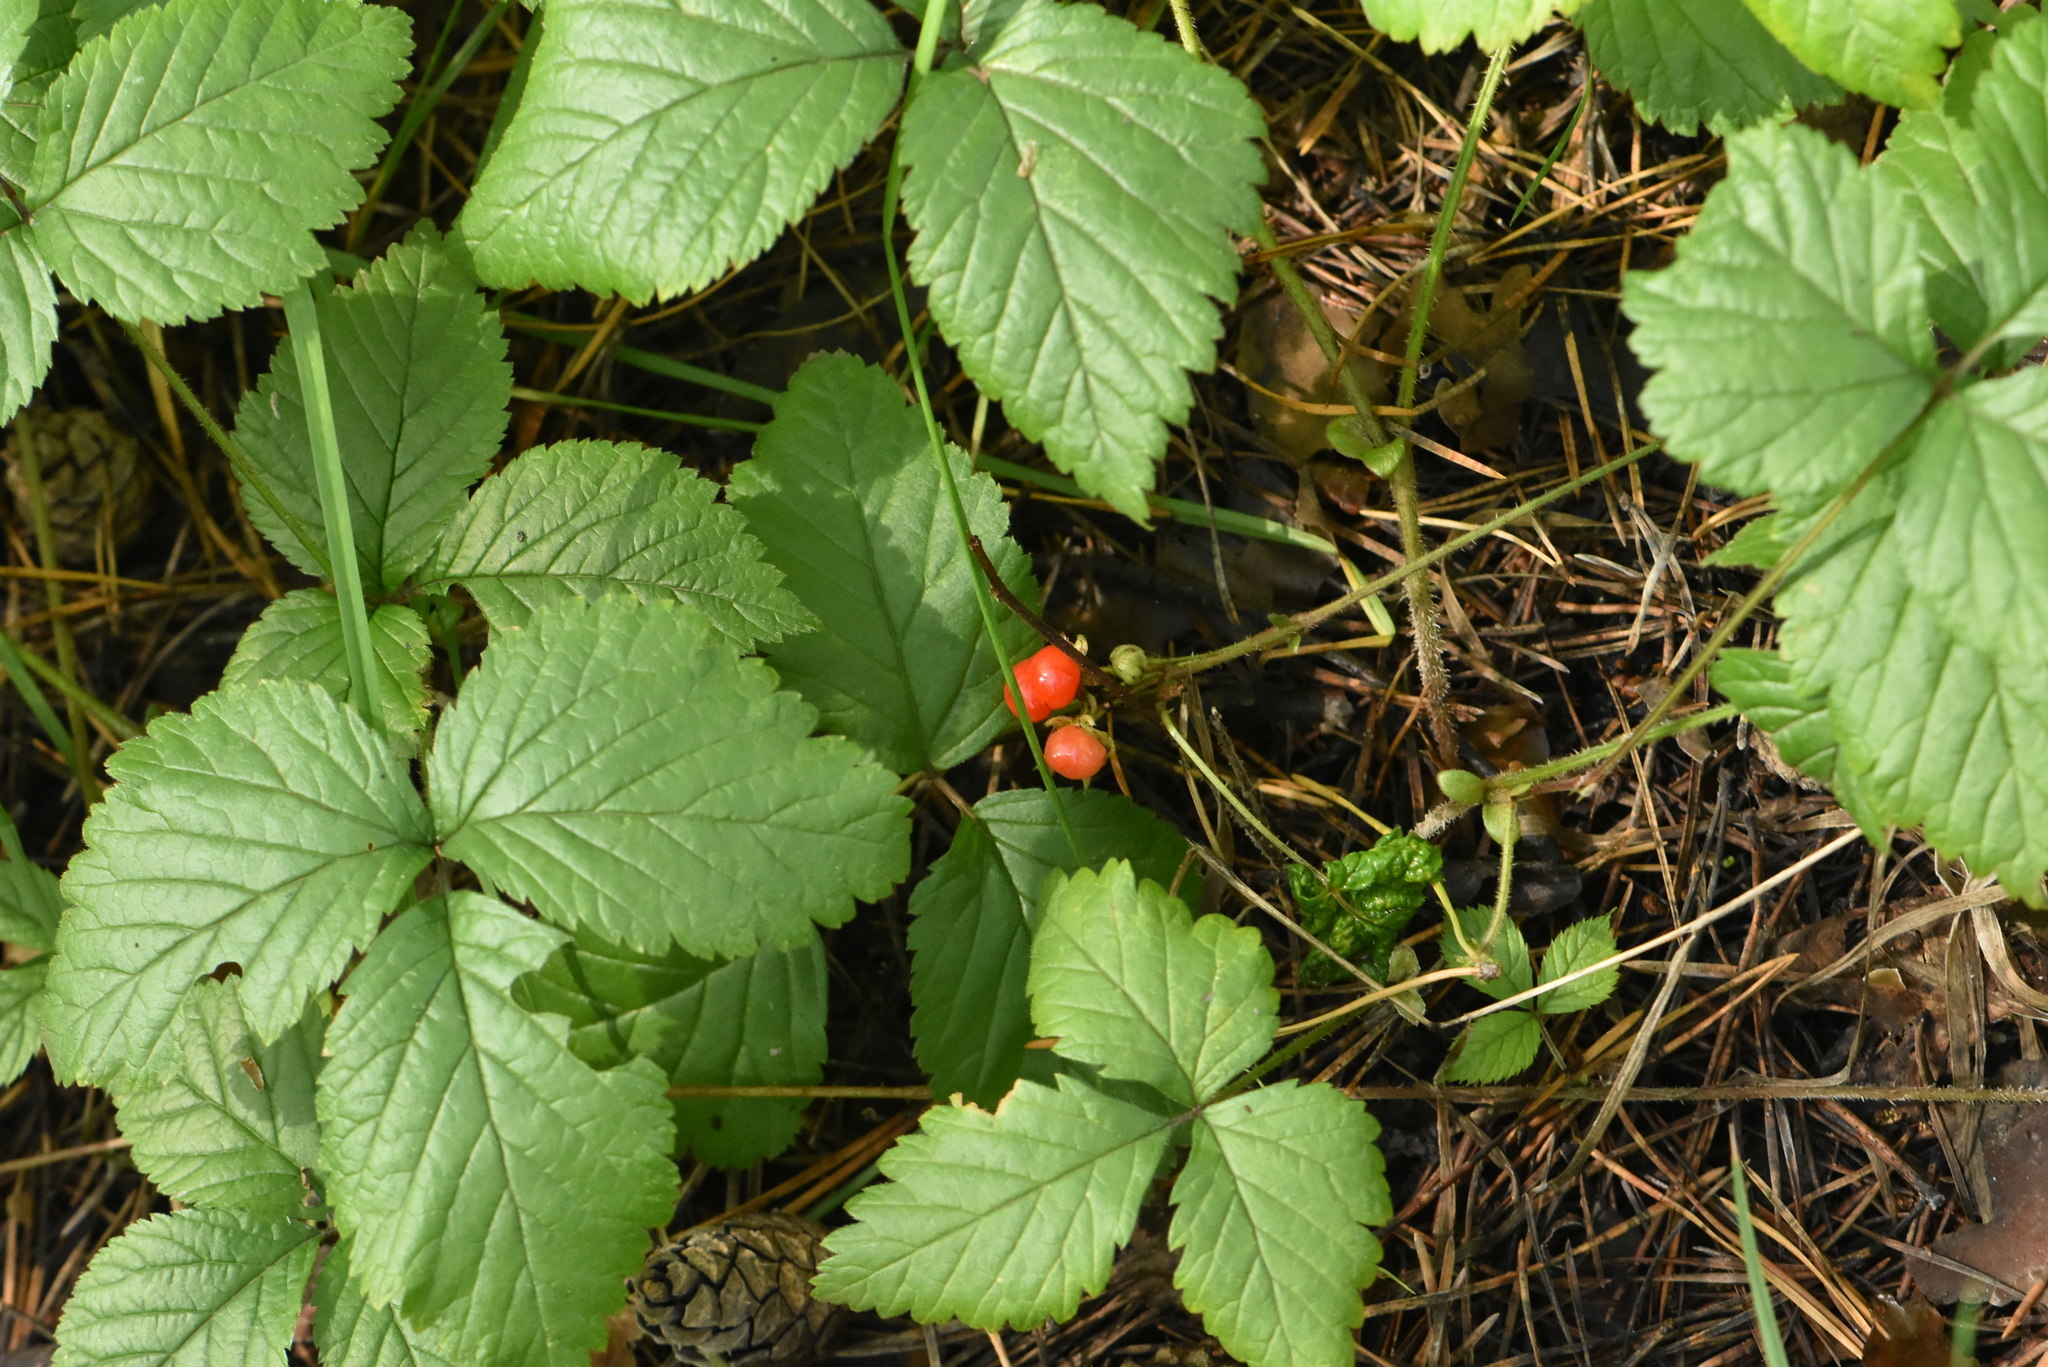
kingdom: Plantae
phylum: Tracheophyta
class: Magnoliopsida
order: Rosales
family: Rosaceae
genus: Rubus
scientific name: Rubus saxatilis
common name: Stone bramble
